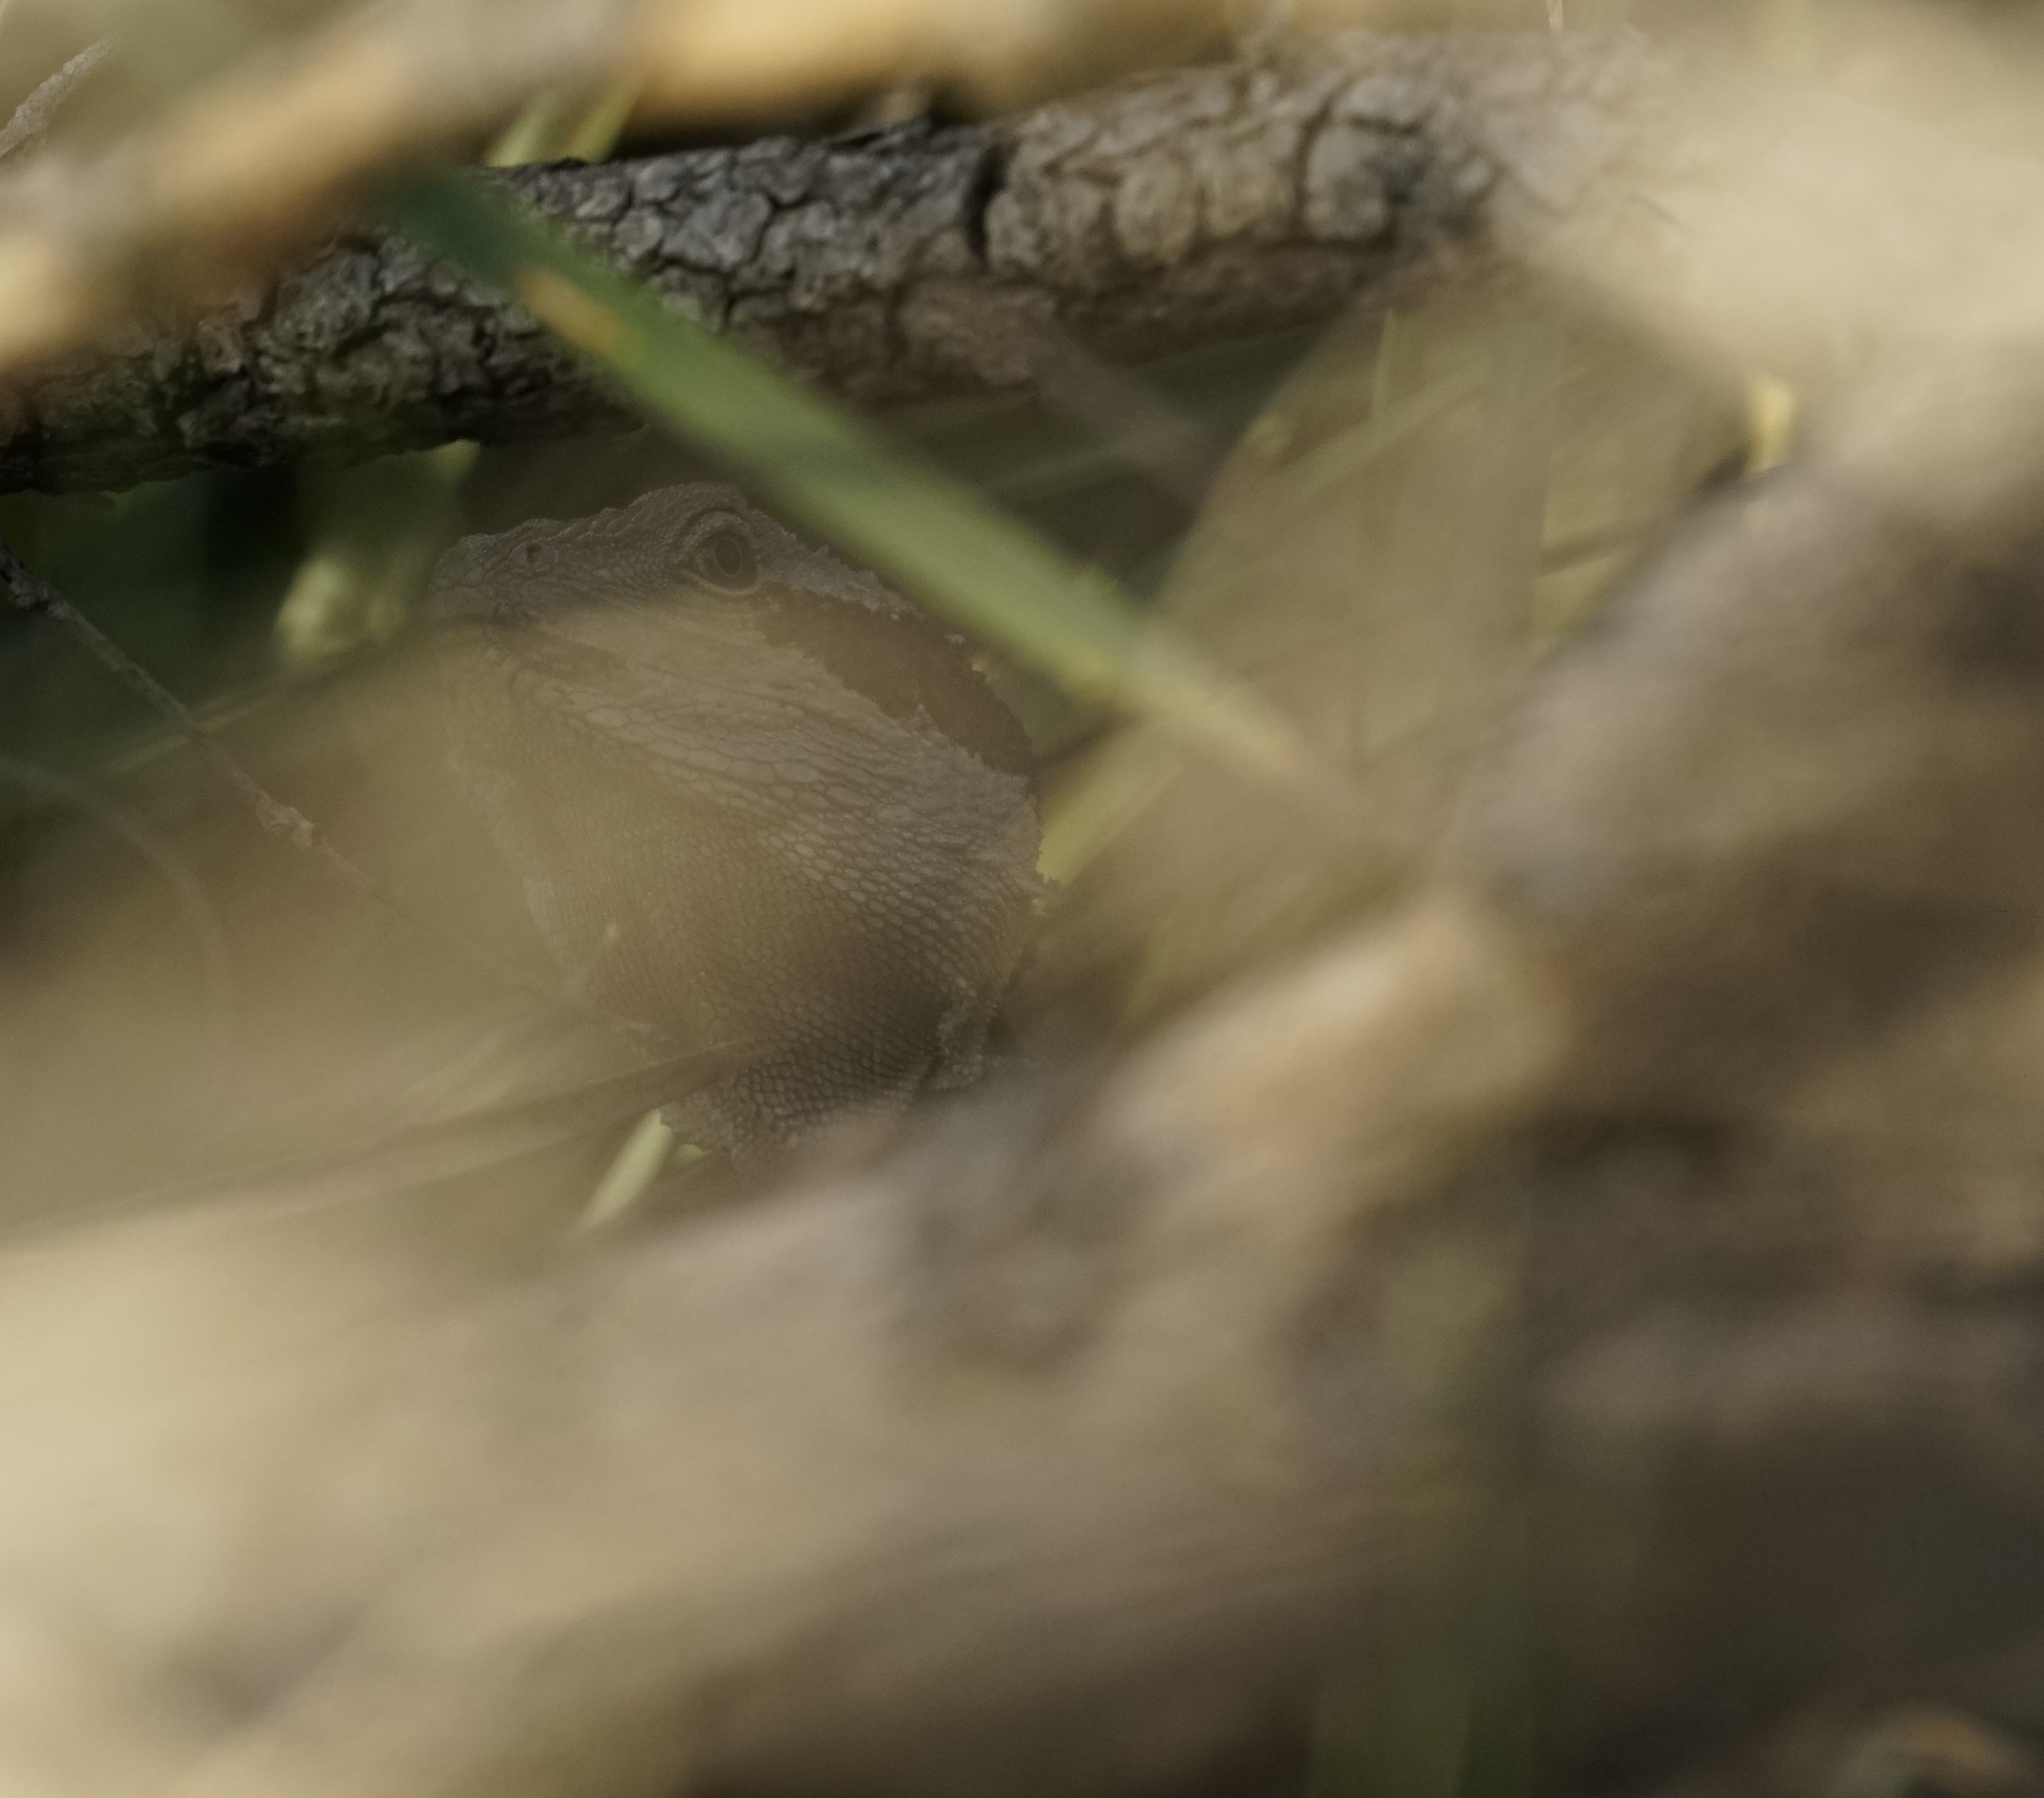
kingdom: Animalia
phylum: Chordata
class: Squamata
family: Agamidae
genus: Intellagama
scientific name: Intellagama lesueurii
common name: Eastern water dragon
